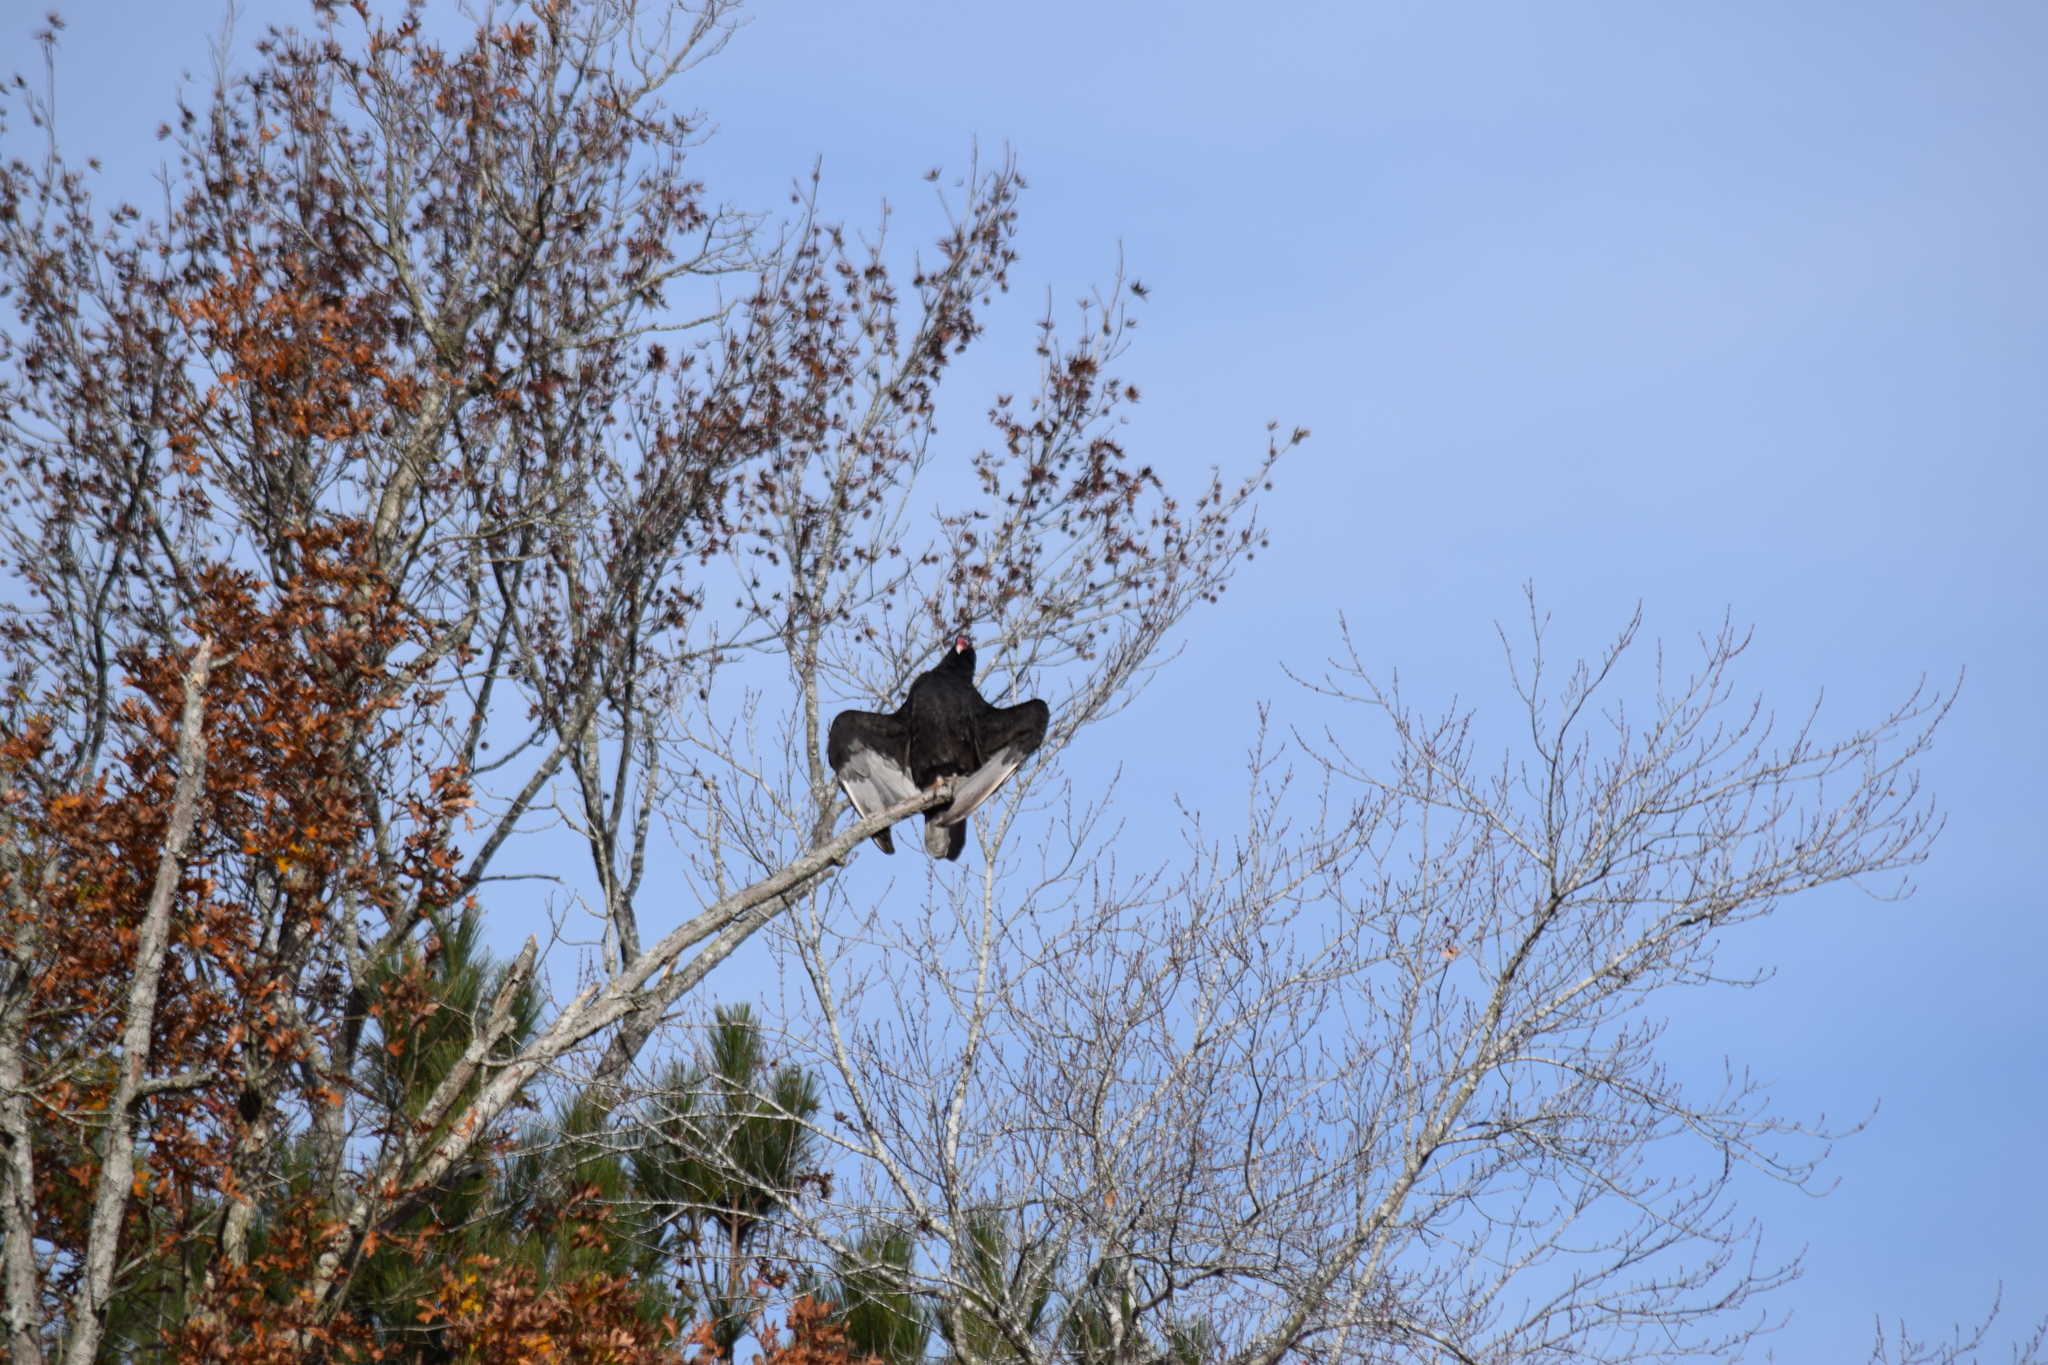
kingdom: Animalia
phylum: Chordata
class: Aves
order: Accipitriformes
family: Cathartidae
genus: Cathartes
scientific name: Cathartes aura
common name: Turkey vulture
